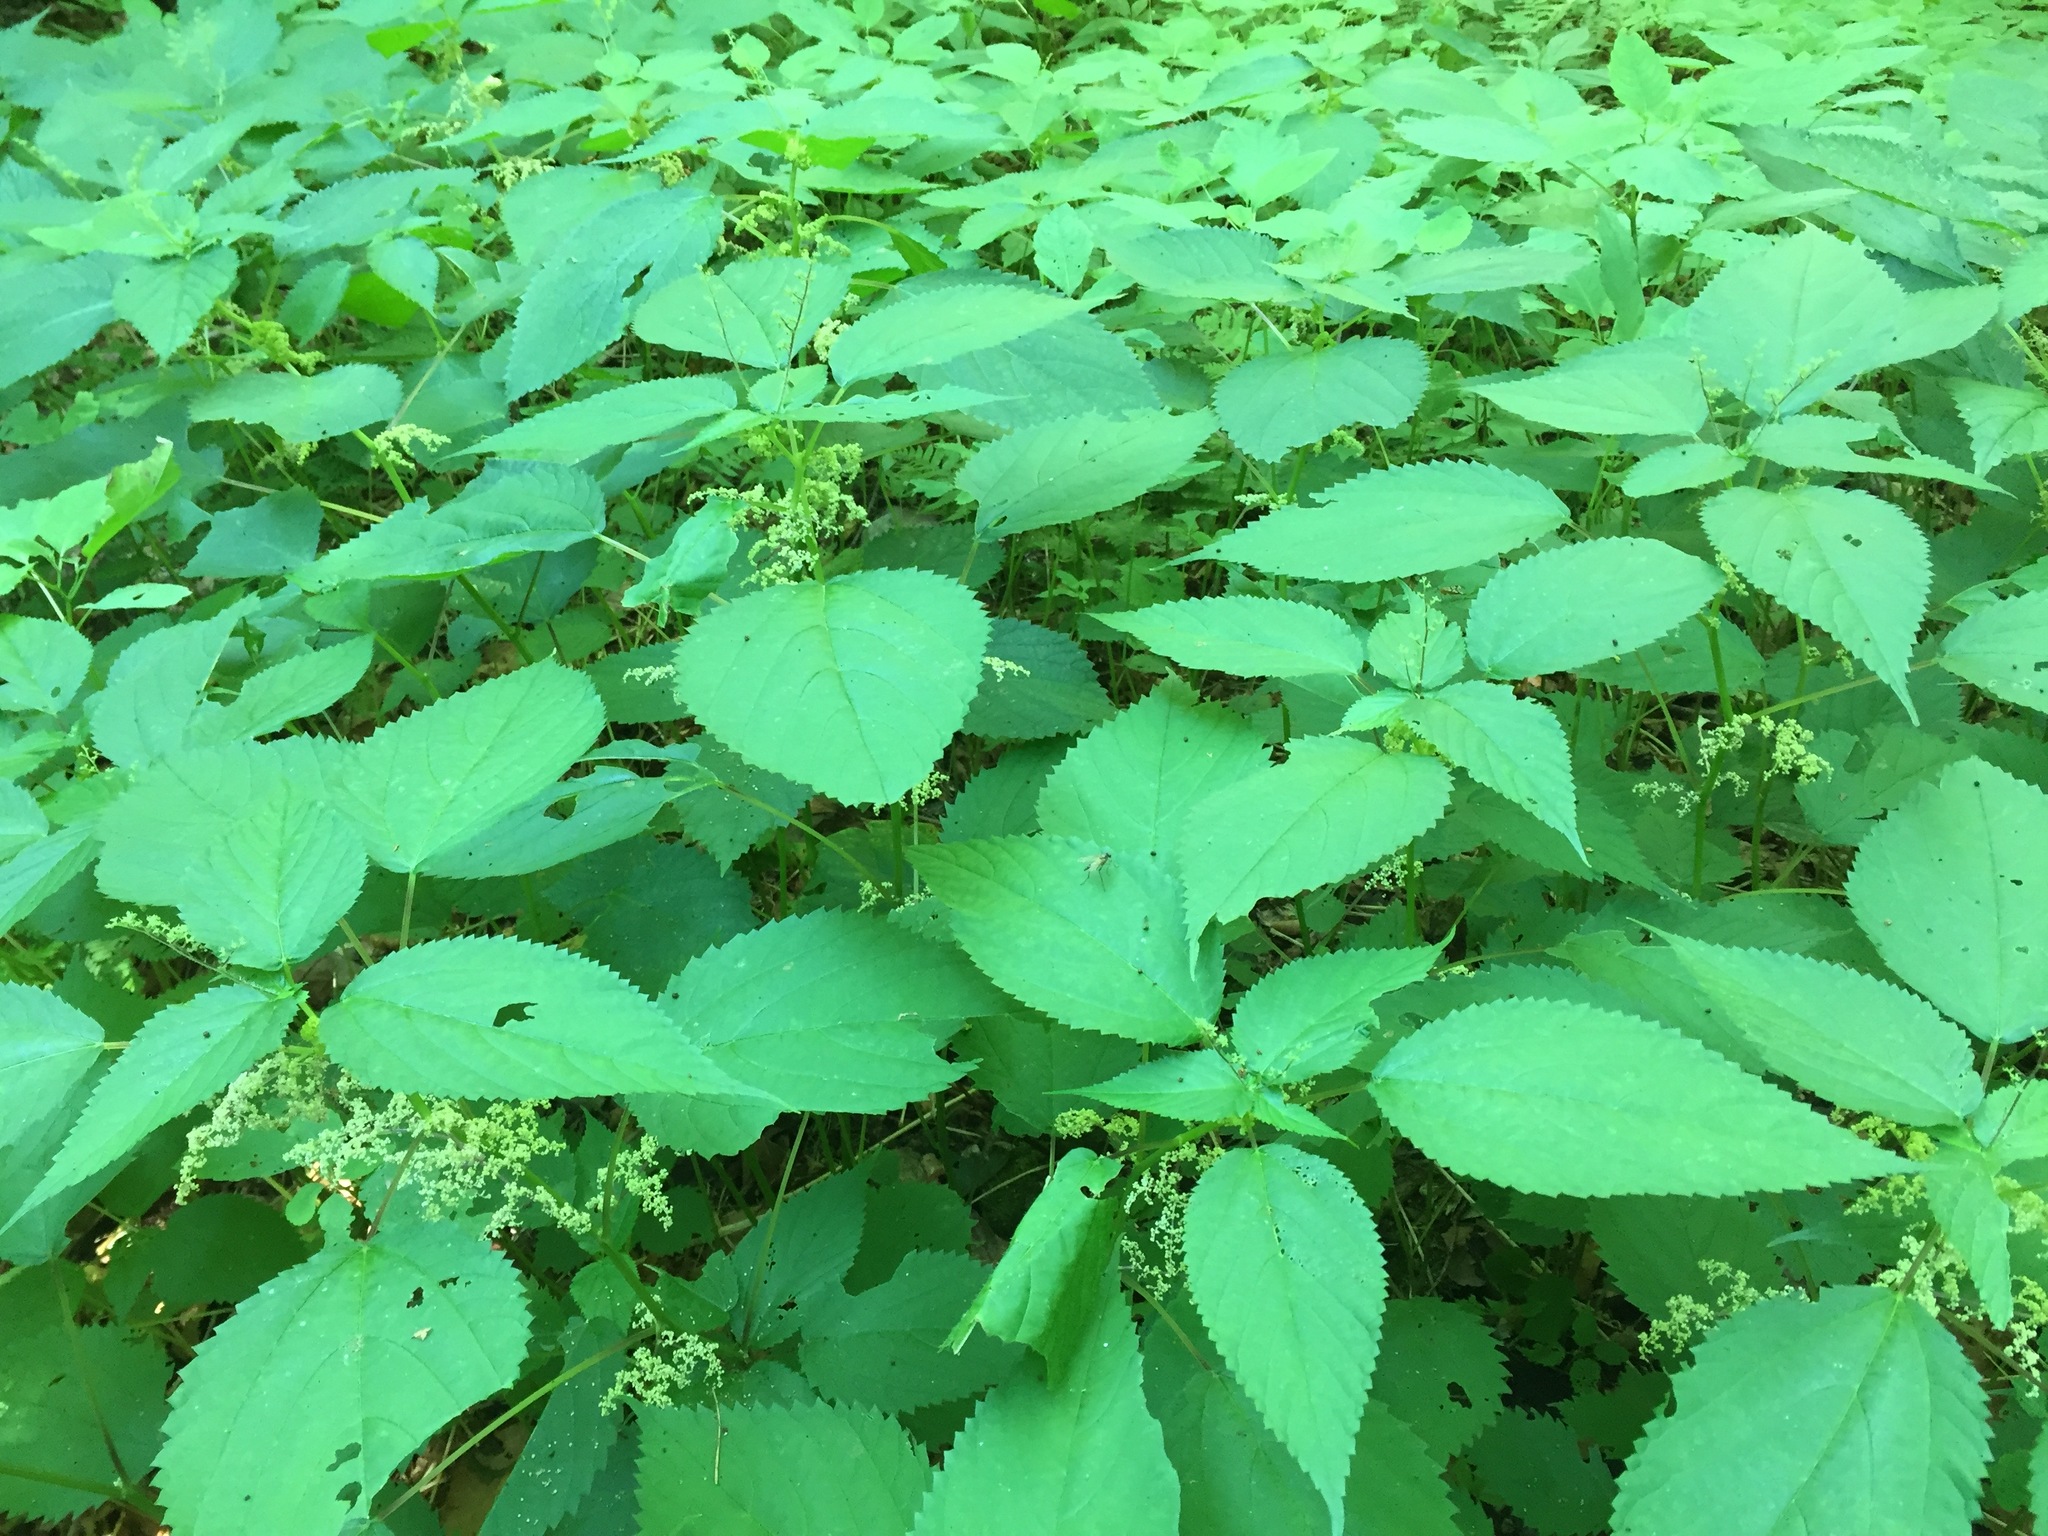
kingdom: Plantae
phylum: Tracheophyta
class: Magnoliopsida
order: Rosales
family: Urticaceae
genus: Laportea
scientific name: Laportea canadensis
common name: Canada nettle
